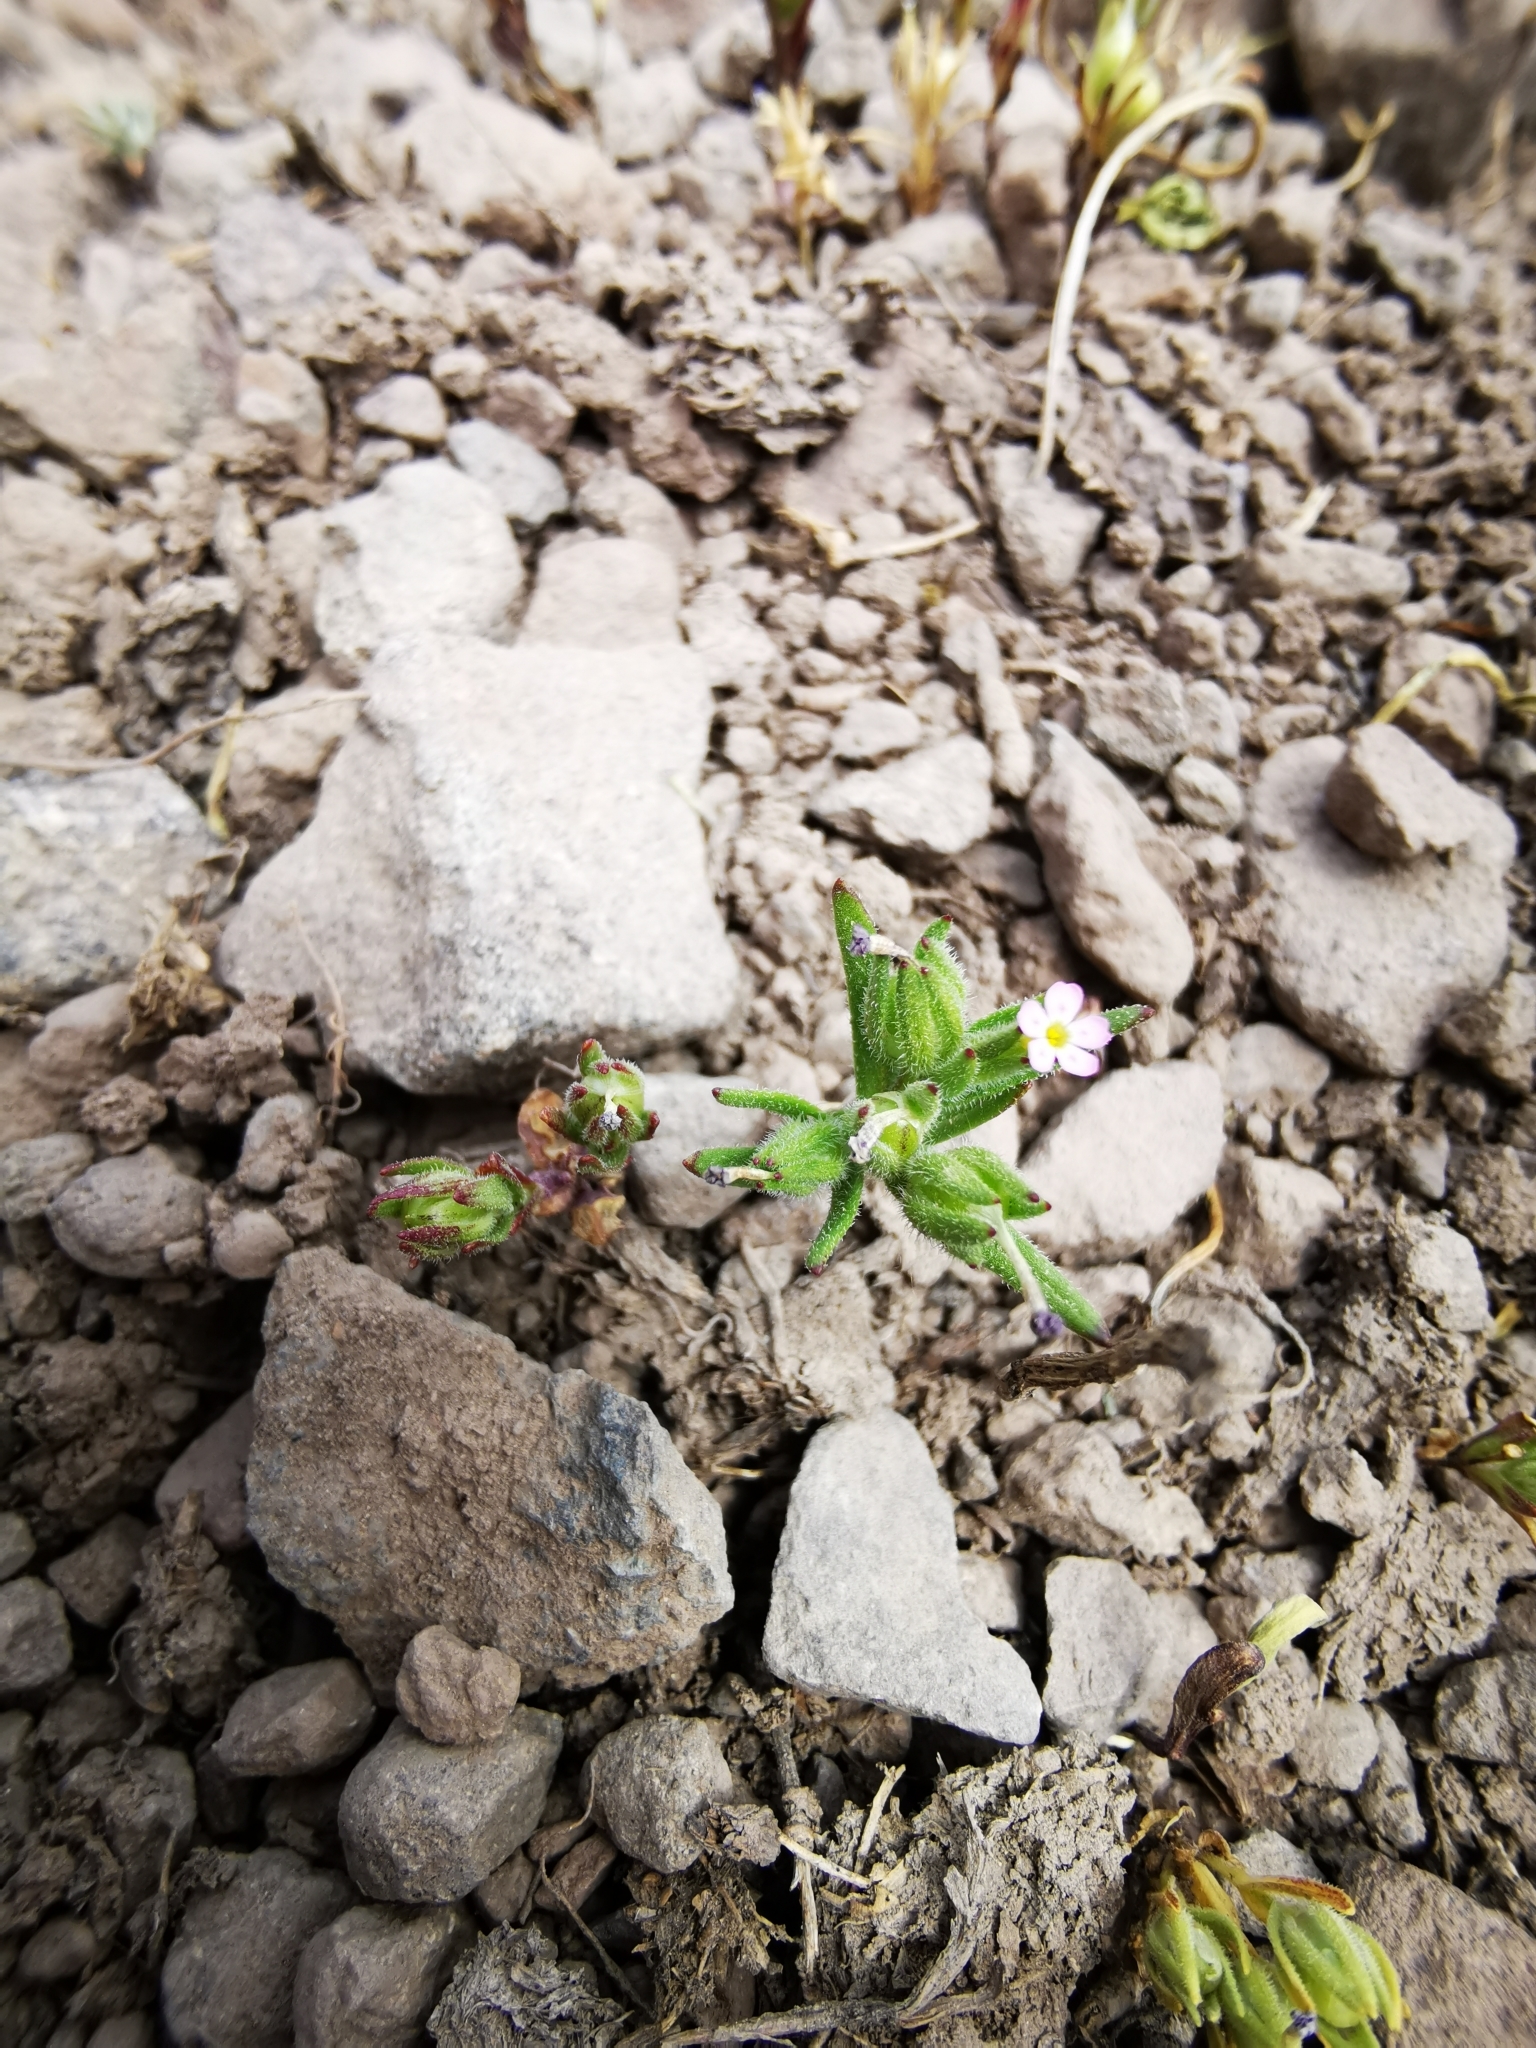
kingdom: Plantae
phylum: Tracheophyta
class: Magnoliopsida
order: Ericales
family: Polemoniaceae
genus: Phlox
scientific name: Phlox gracilis
